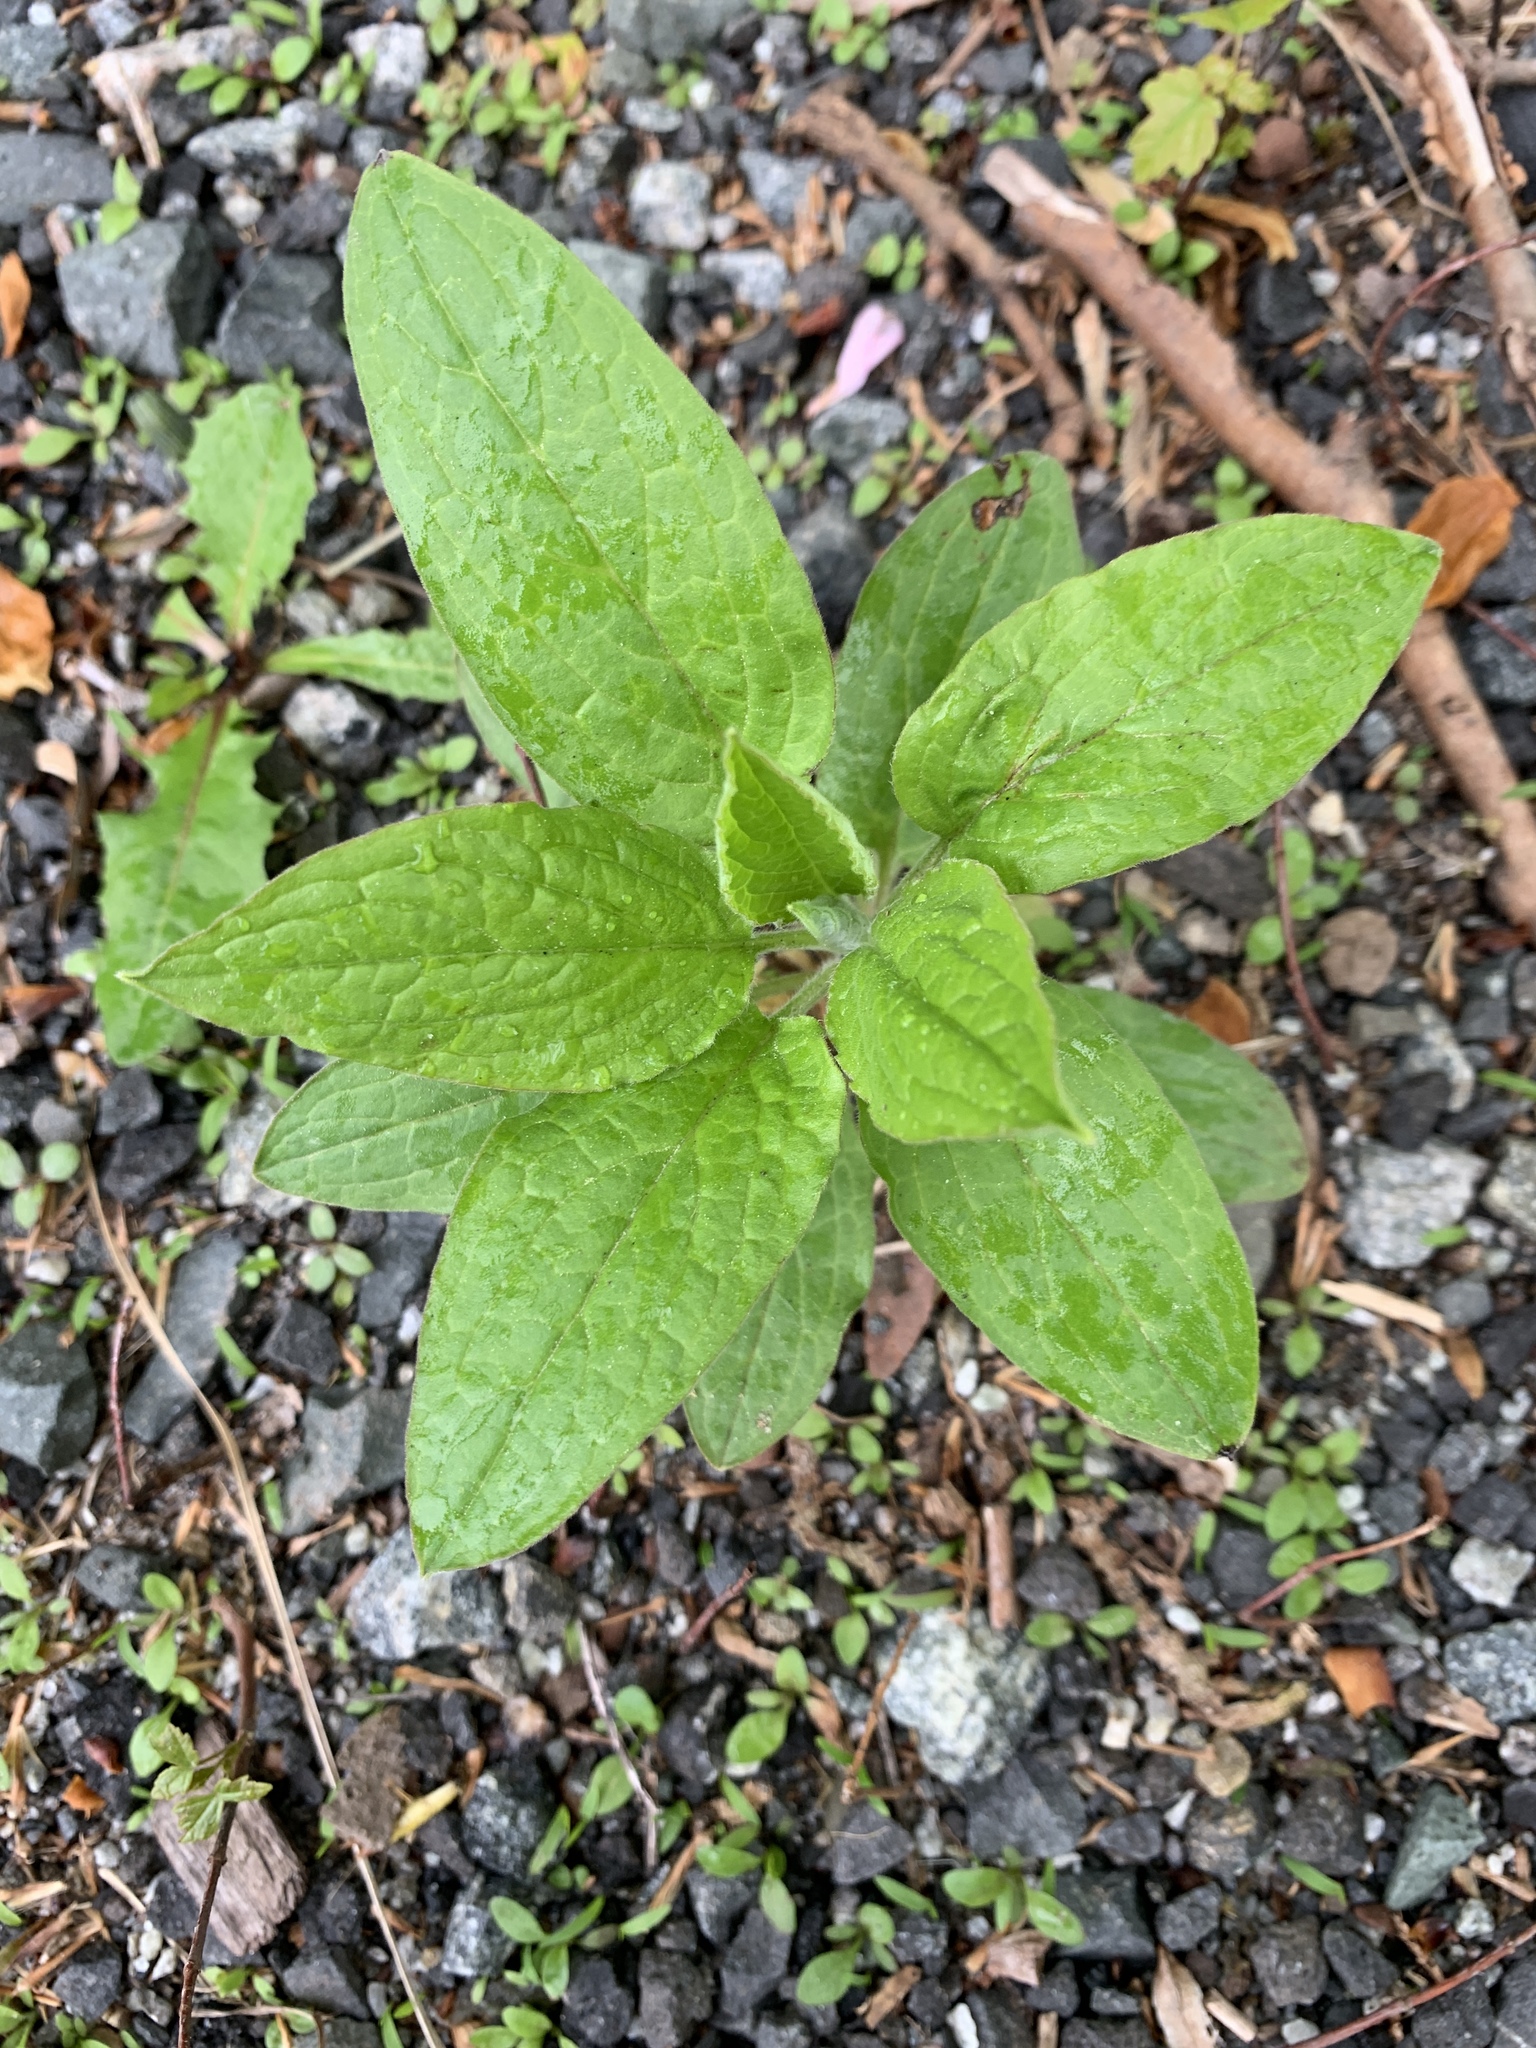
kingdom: Plantae
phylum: Tracheophyta
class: Magnoliopsida
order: Boraginales
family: Boraginaceae
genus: Hackelia
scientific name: Hackelia virginiana
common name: Beggar's-lice
